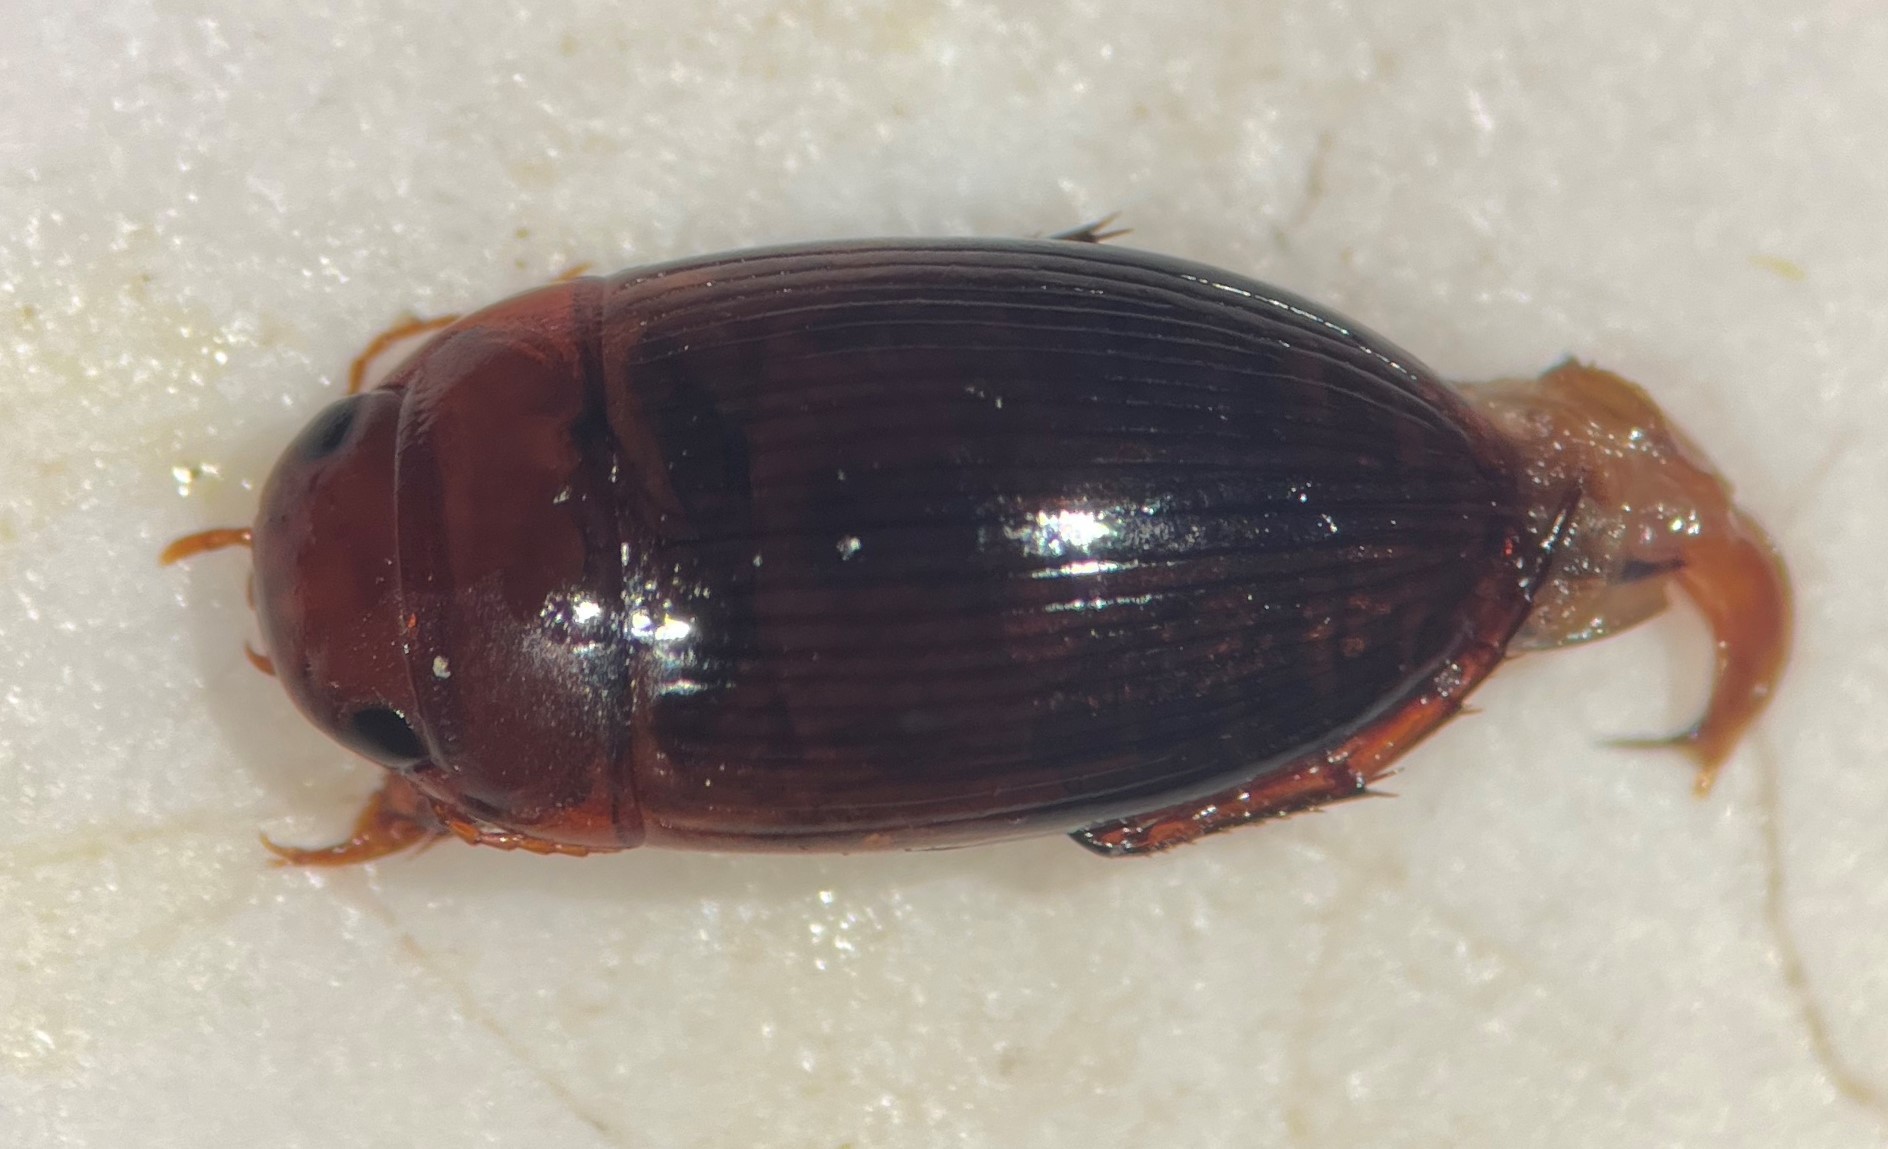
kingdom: Animalia
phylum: Arthropoda
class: Insecta
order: Coleoptera
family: Dytiscidae
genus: Copelatus
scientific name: Copelatus glyphicus
